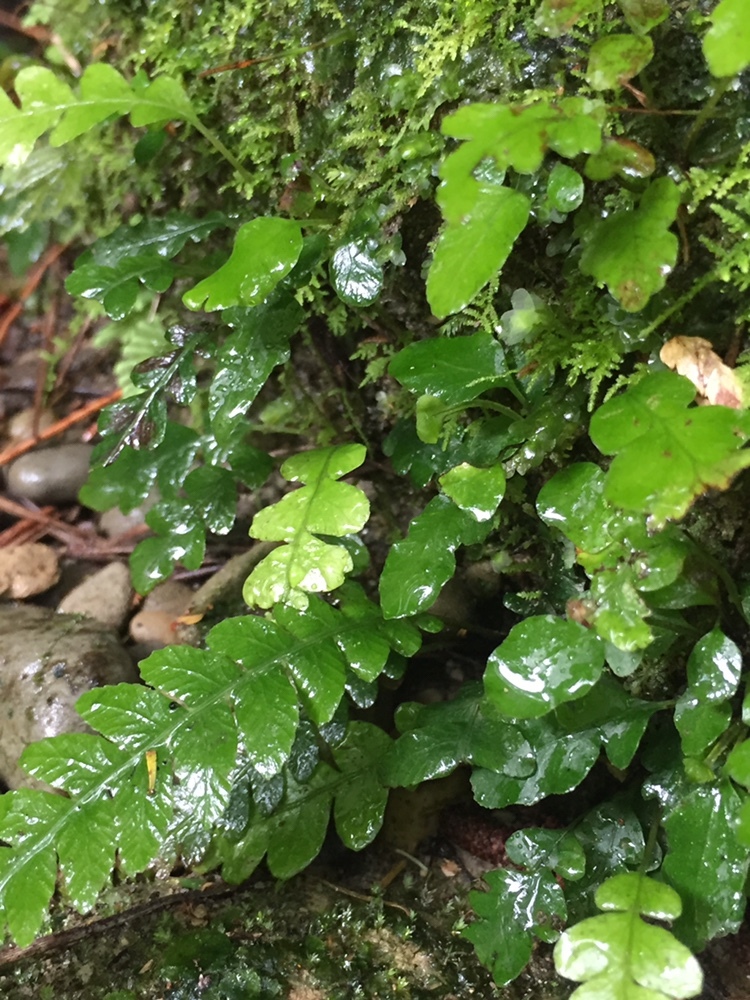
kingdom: Plantae
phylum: Tracheophyta
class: Polypodiopsida
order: Polypodiales
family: Blechnaceae
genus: Austroblechnum
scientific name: Austroblechnum lanceolatum
